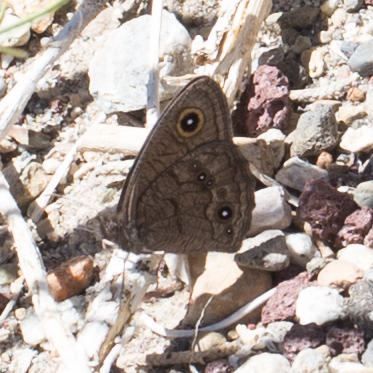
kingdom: Animalia
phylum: Arthropoda
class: Insecta
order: Lepidoptera
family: Nymphalidae
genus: Cercyonis
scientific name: Cercyonis sthenele
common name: Great basin wood-nymph
